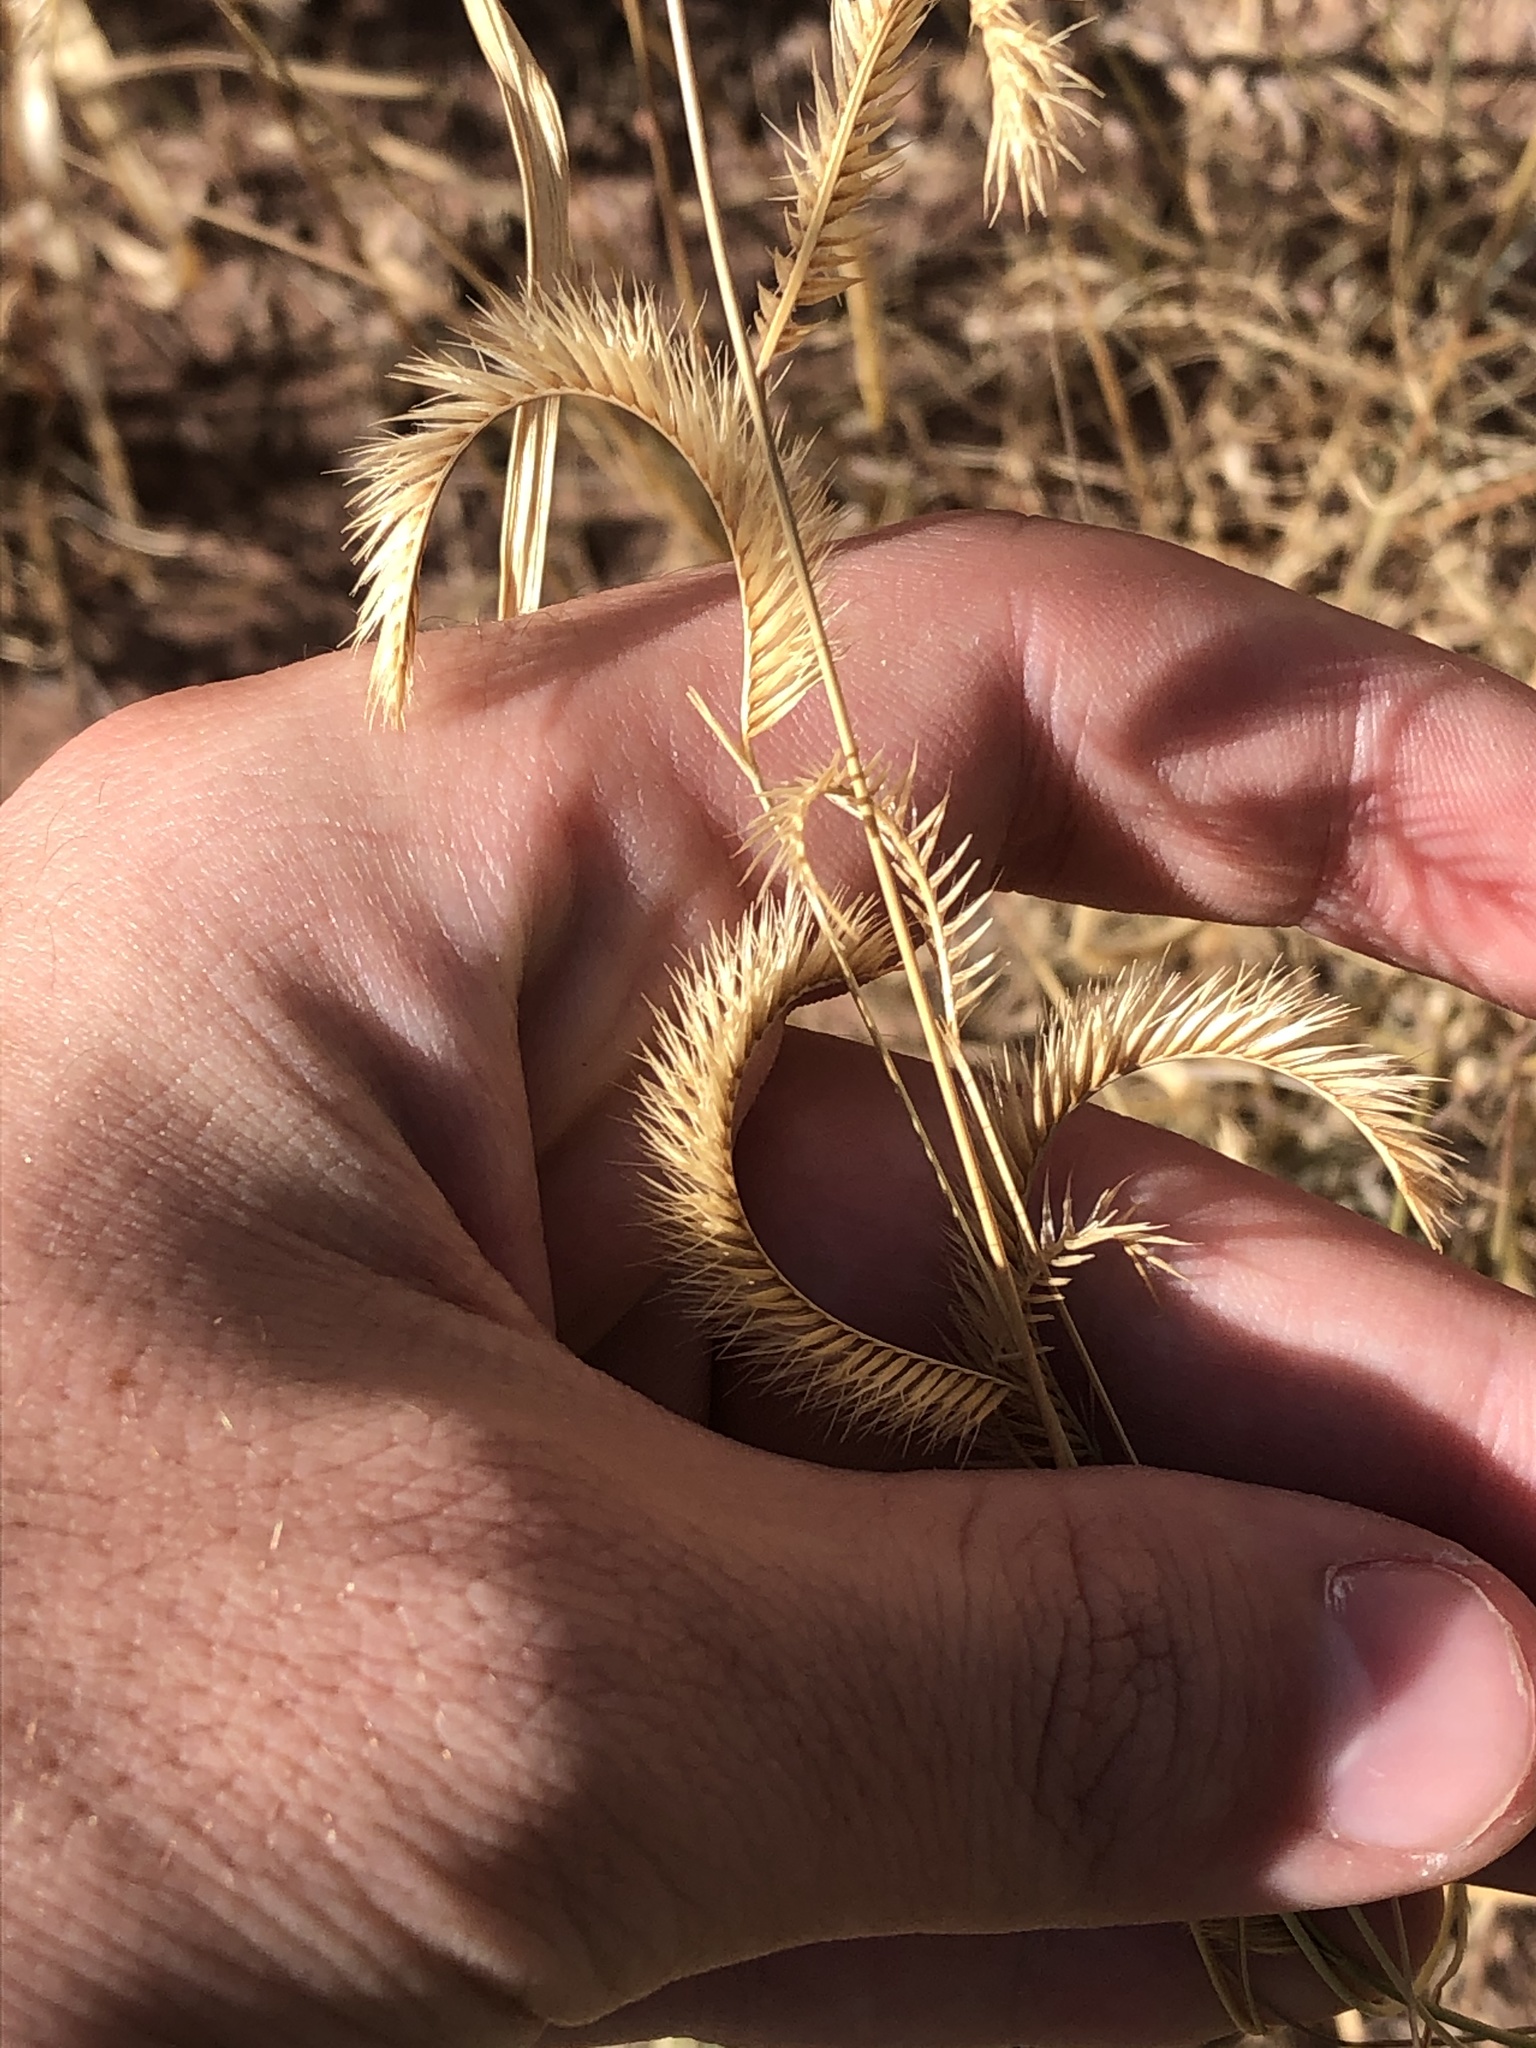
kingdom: Plantae
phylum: Tracheophyta
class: Liliopsida
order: Poales
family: Poaceae
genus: Bouteloua
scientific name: Bouteloua gracilis
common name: Blue grama
